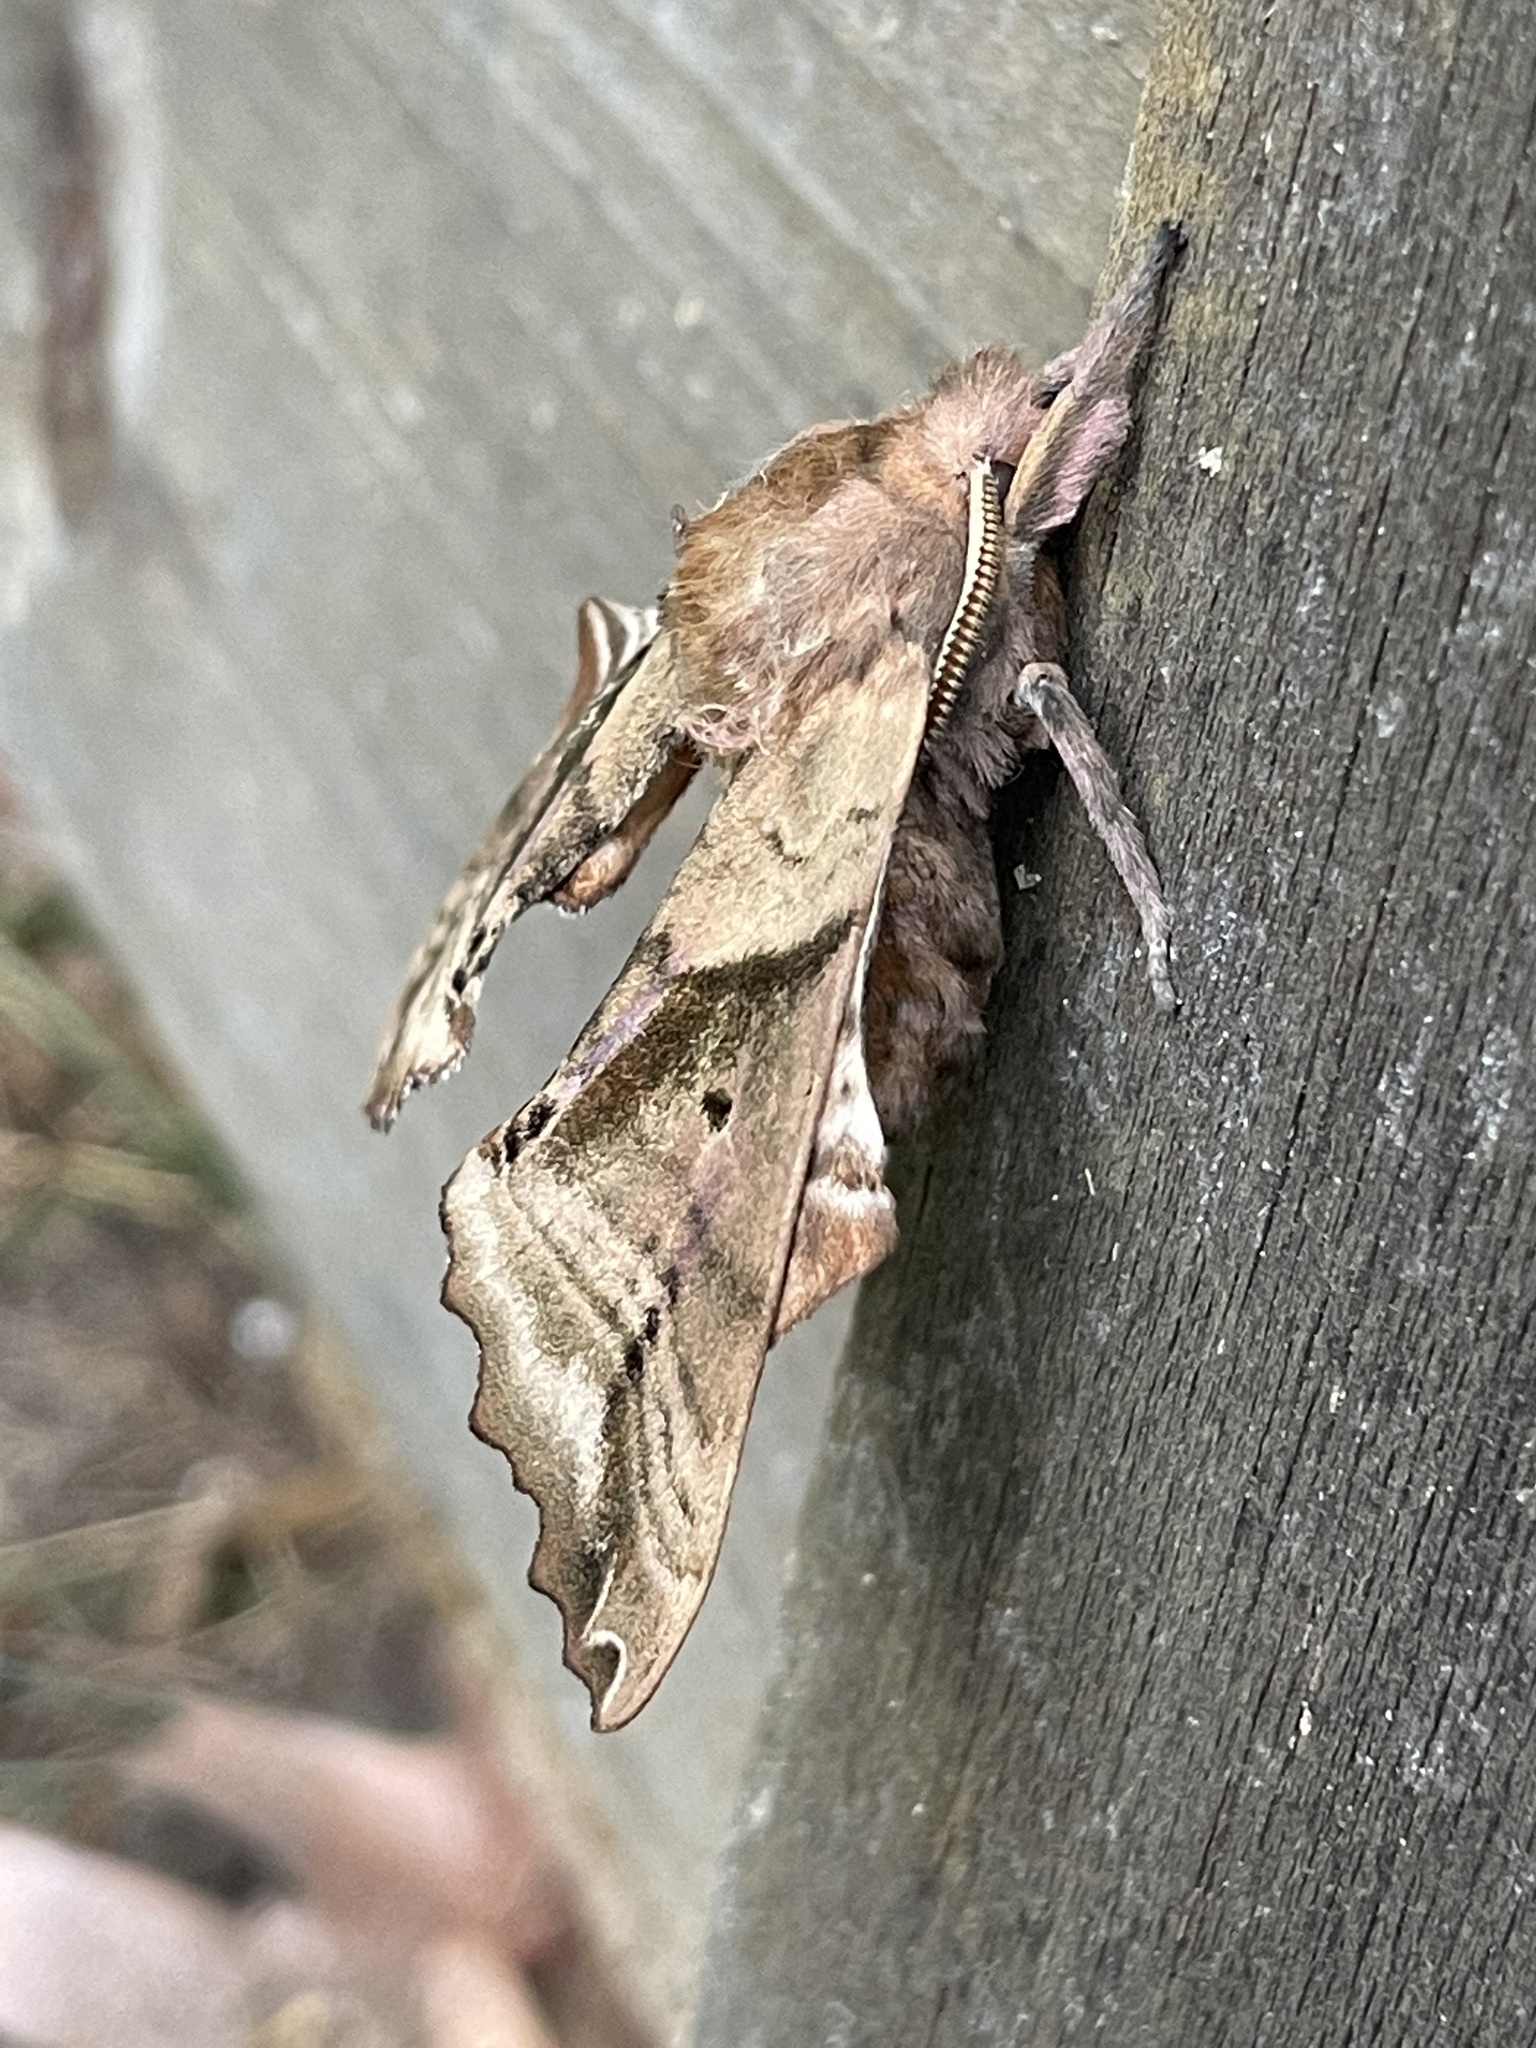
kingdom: Animalia
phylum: Arthropoda
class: Insecta
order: Lepidoptera
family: Sphingidae
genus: Paonias
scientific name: Paonias excaecata
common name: Blind-eyed sphinx
